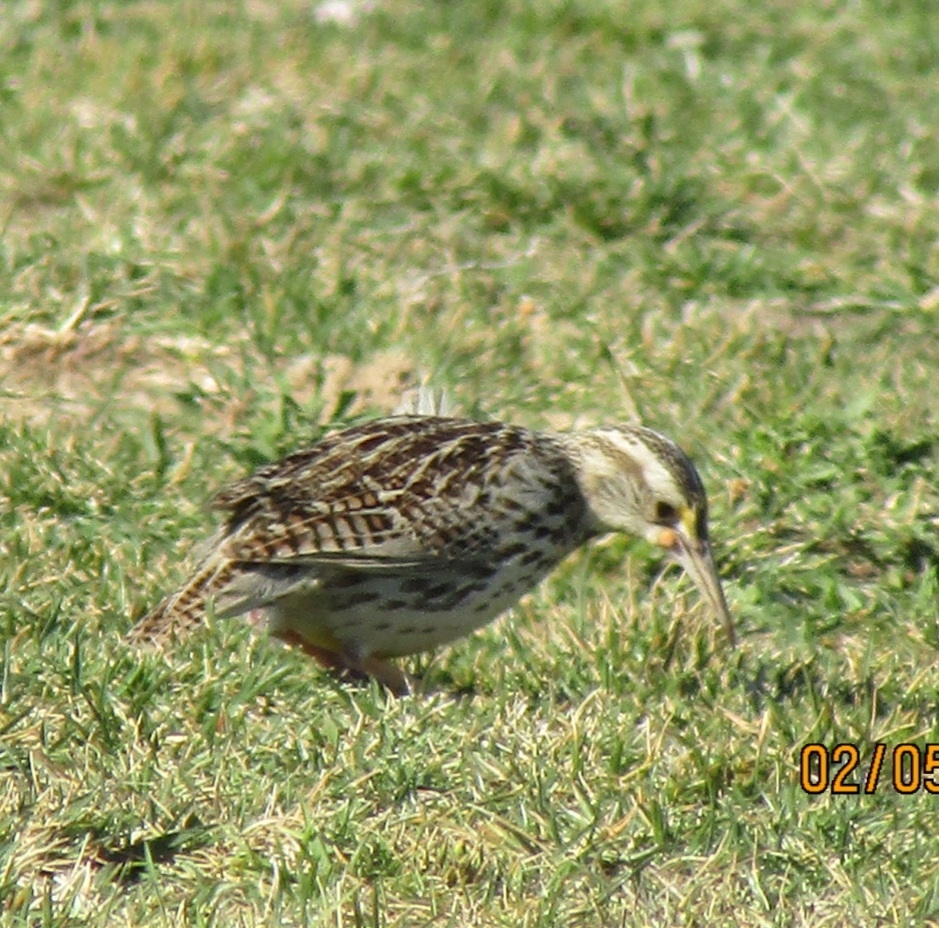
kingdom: Animalia
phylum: Chordata
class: Aves
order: Passeriformes
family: Icteridae
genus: Sturnella
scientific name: Sturnella neglecta
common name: Western meadowlark
